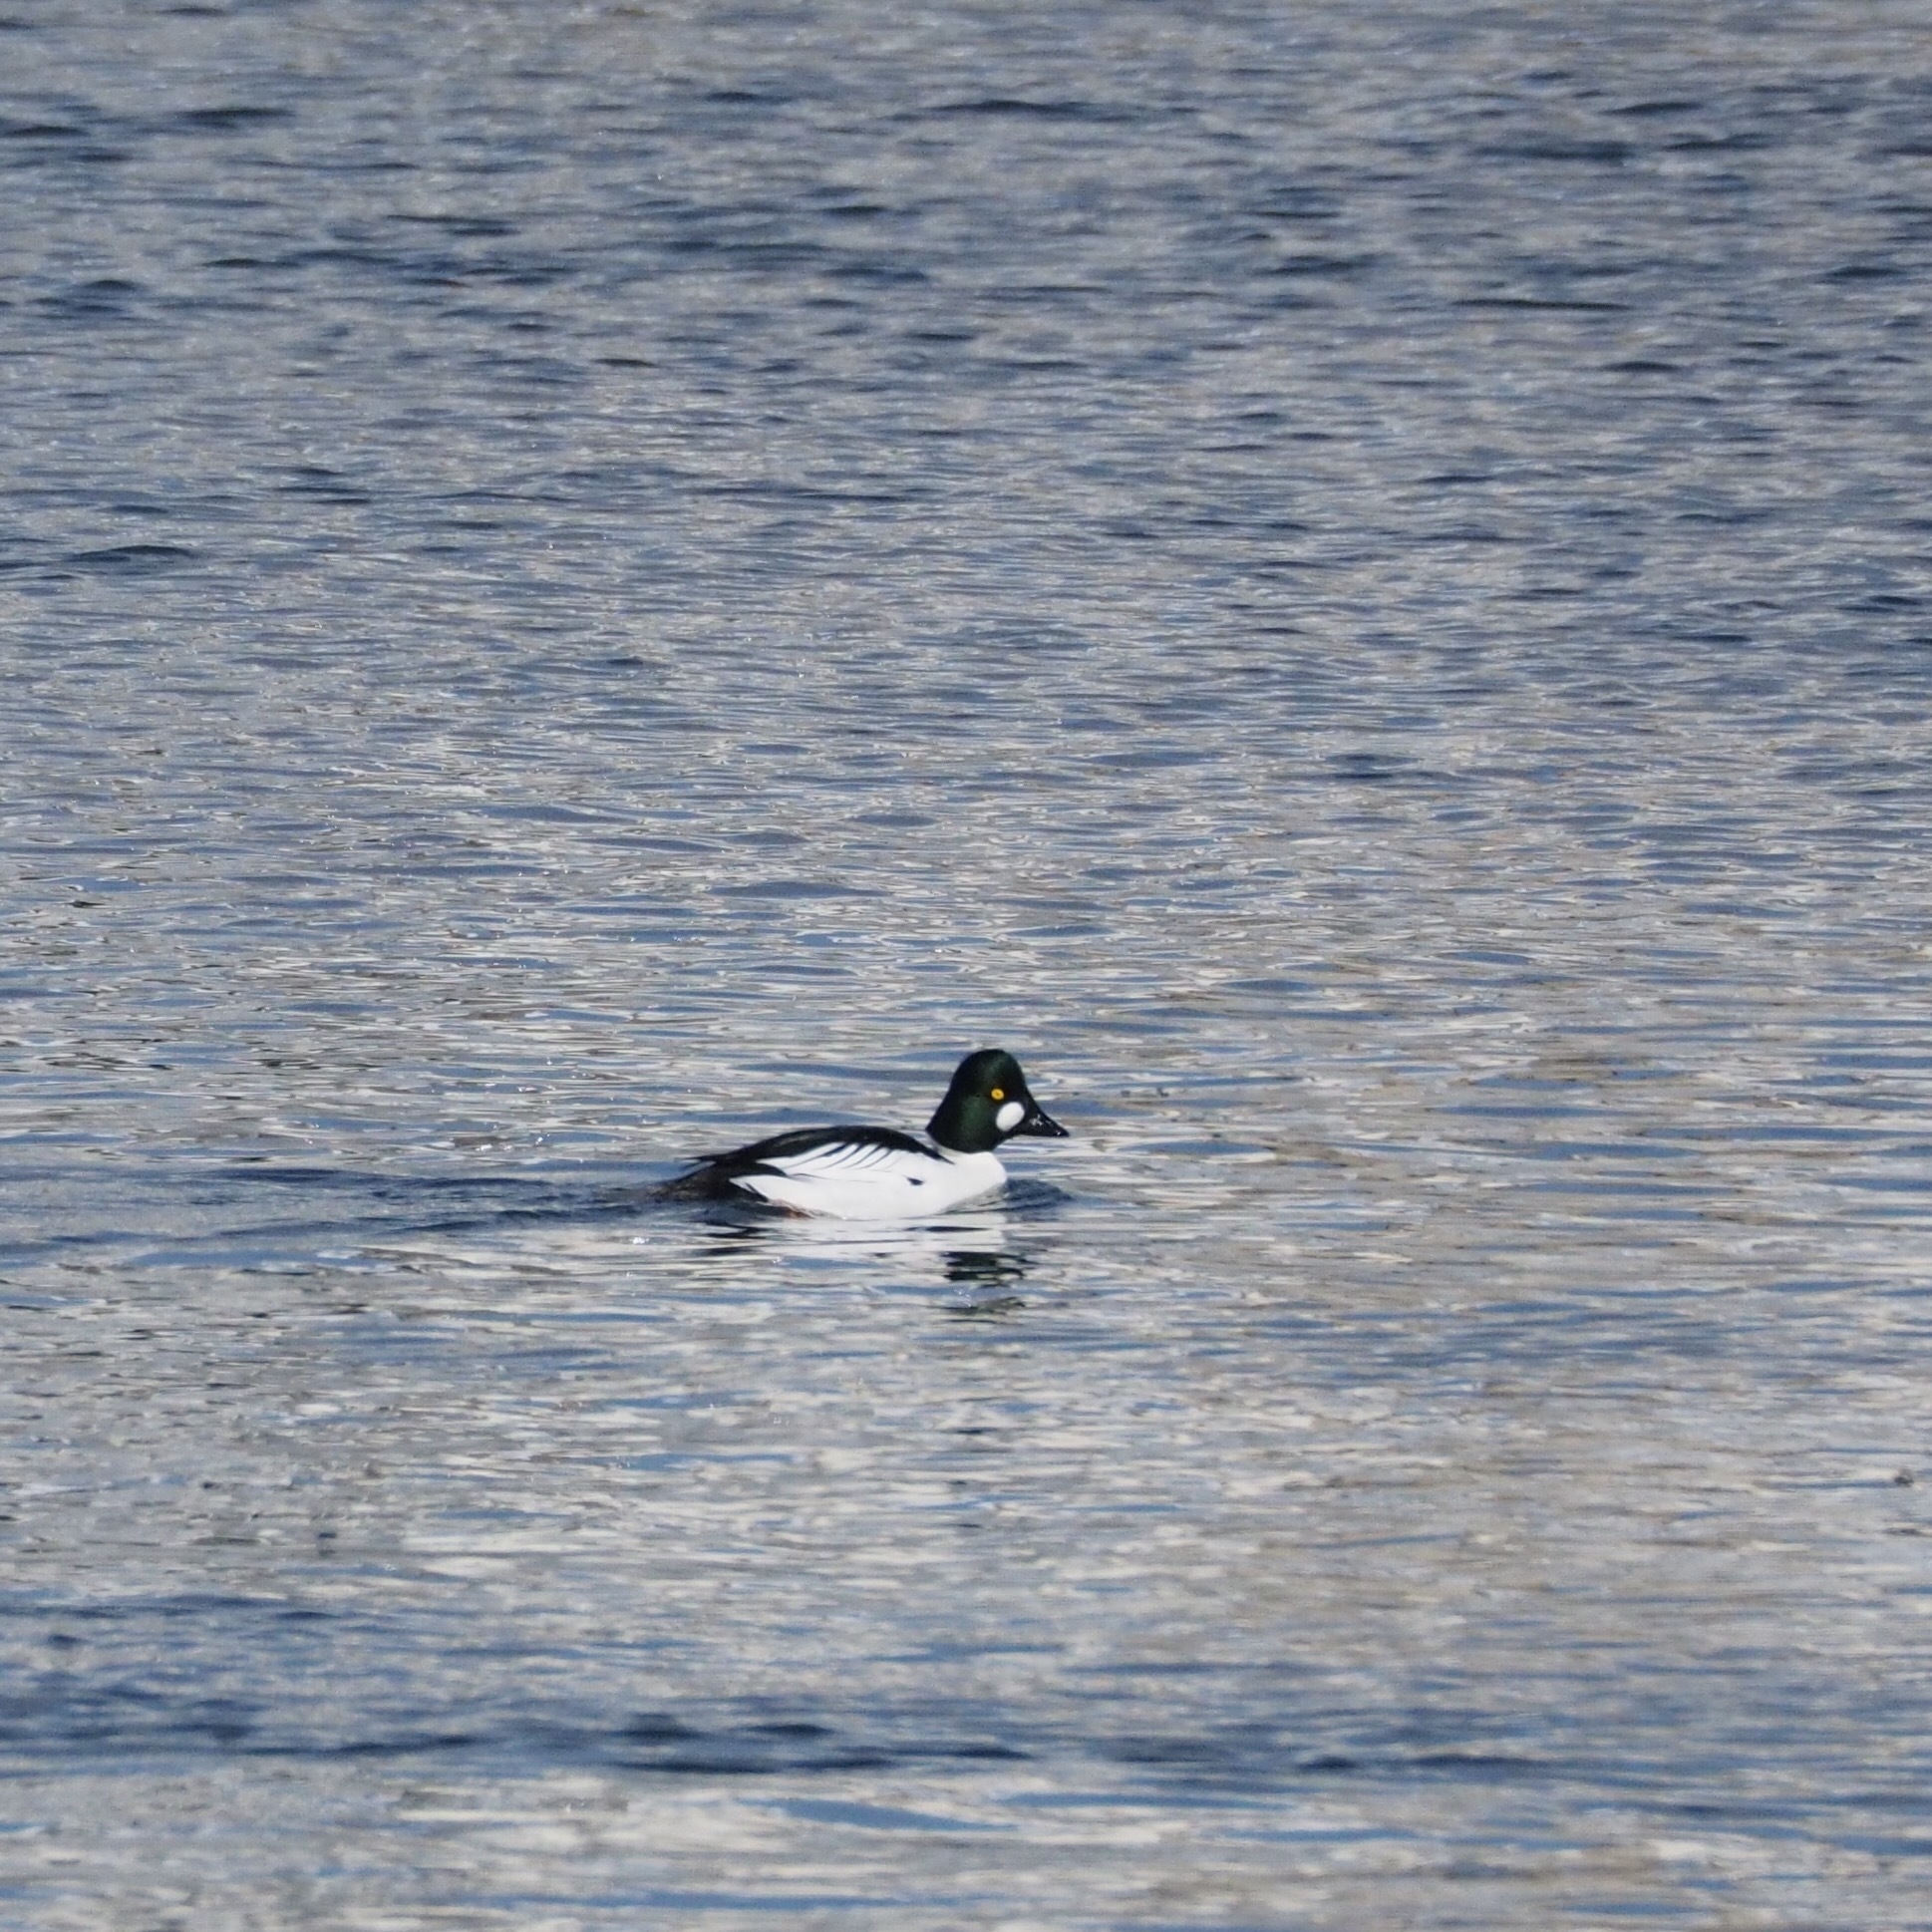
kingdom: Animalia
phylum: Chordata
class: Aves
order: Anseriformes
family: Anatidae
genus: Bucephala
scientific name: Bucephala clangula
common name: Common goldeneye
